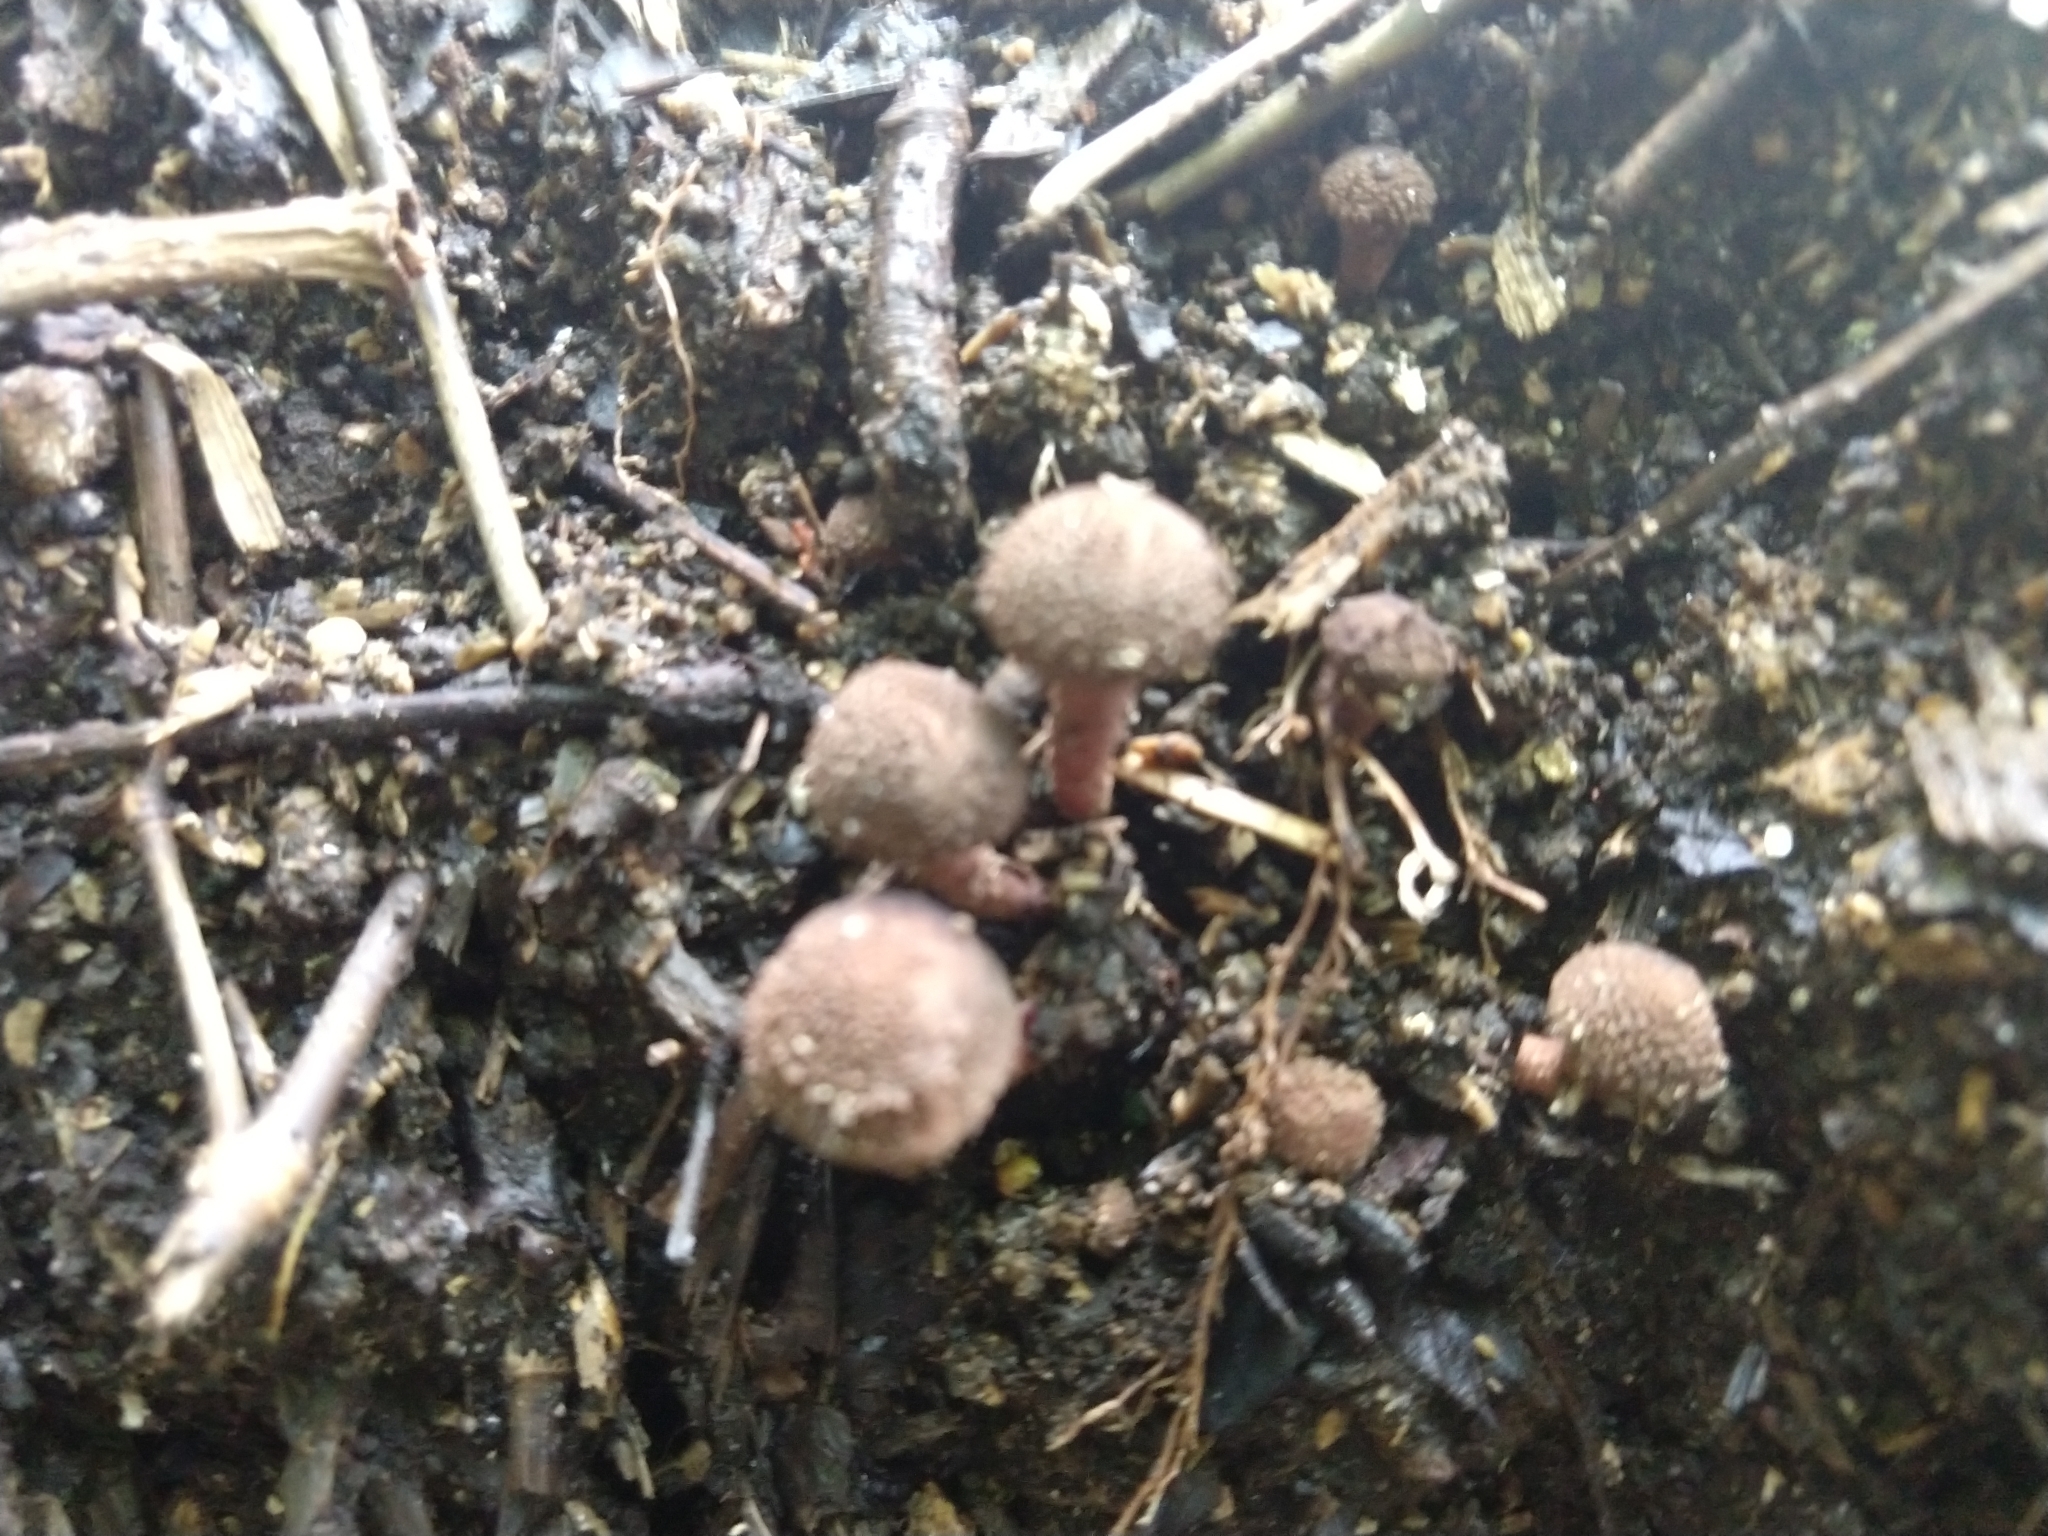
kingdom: Fungi
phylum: Basidiomycota
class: Agaricomycetes
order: Agaricales
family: Agaricaceae
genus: Melanophyllum
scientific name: Melanophyllum haematospermum
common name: Redspored dapperling
